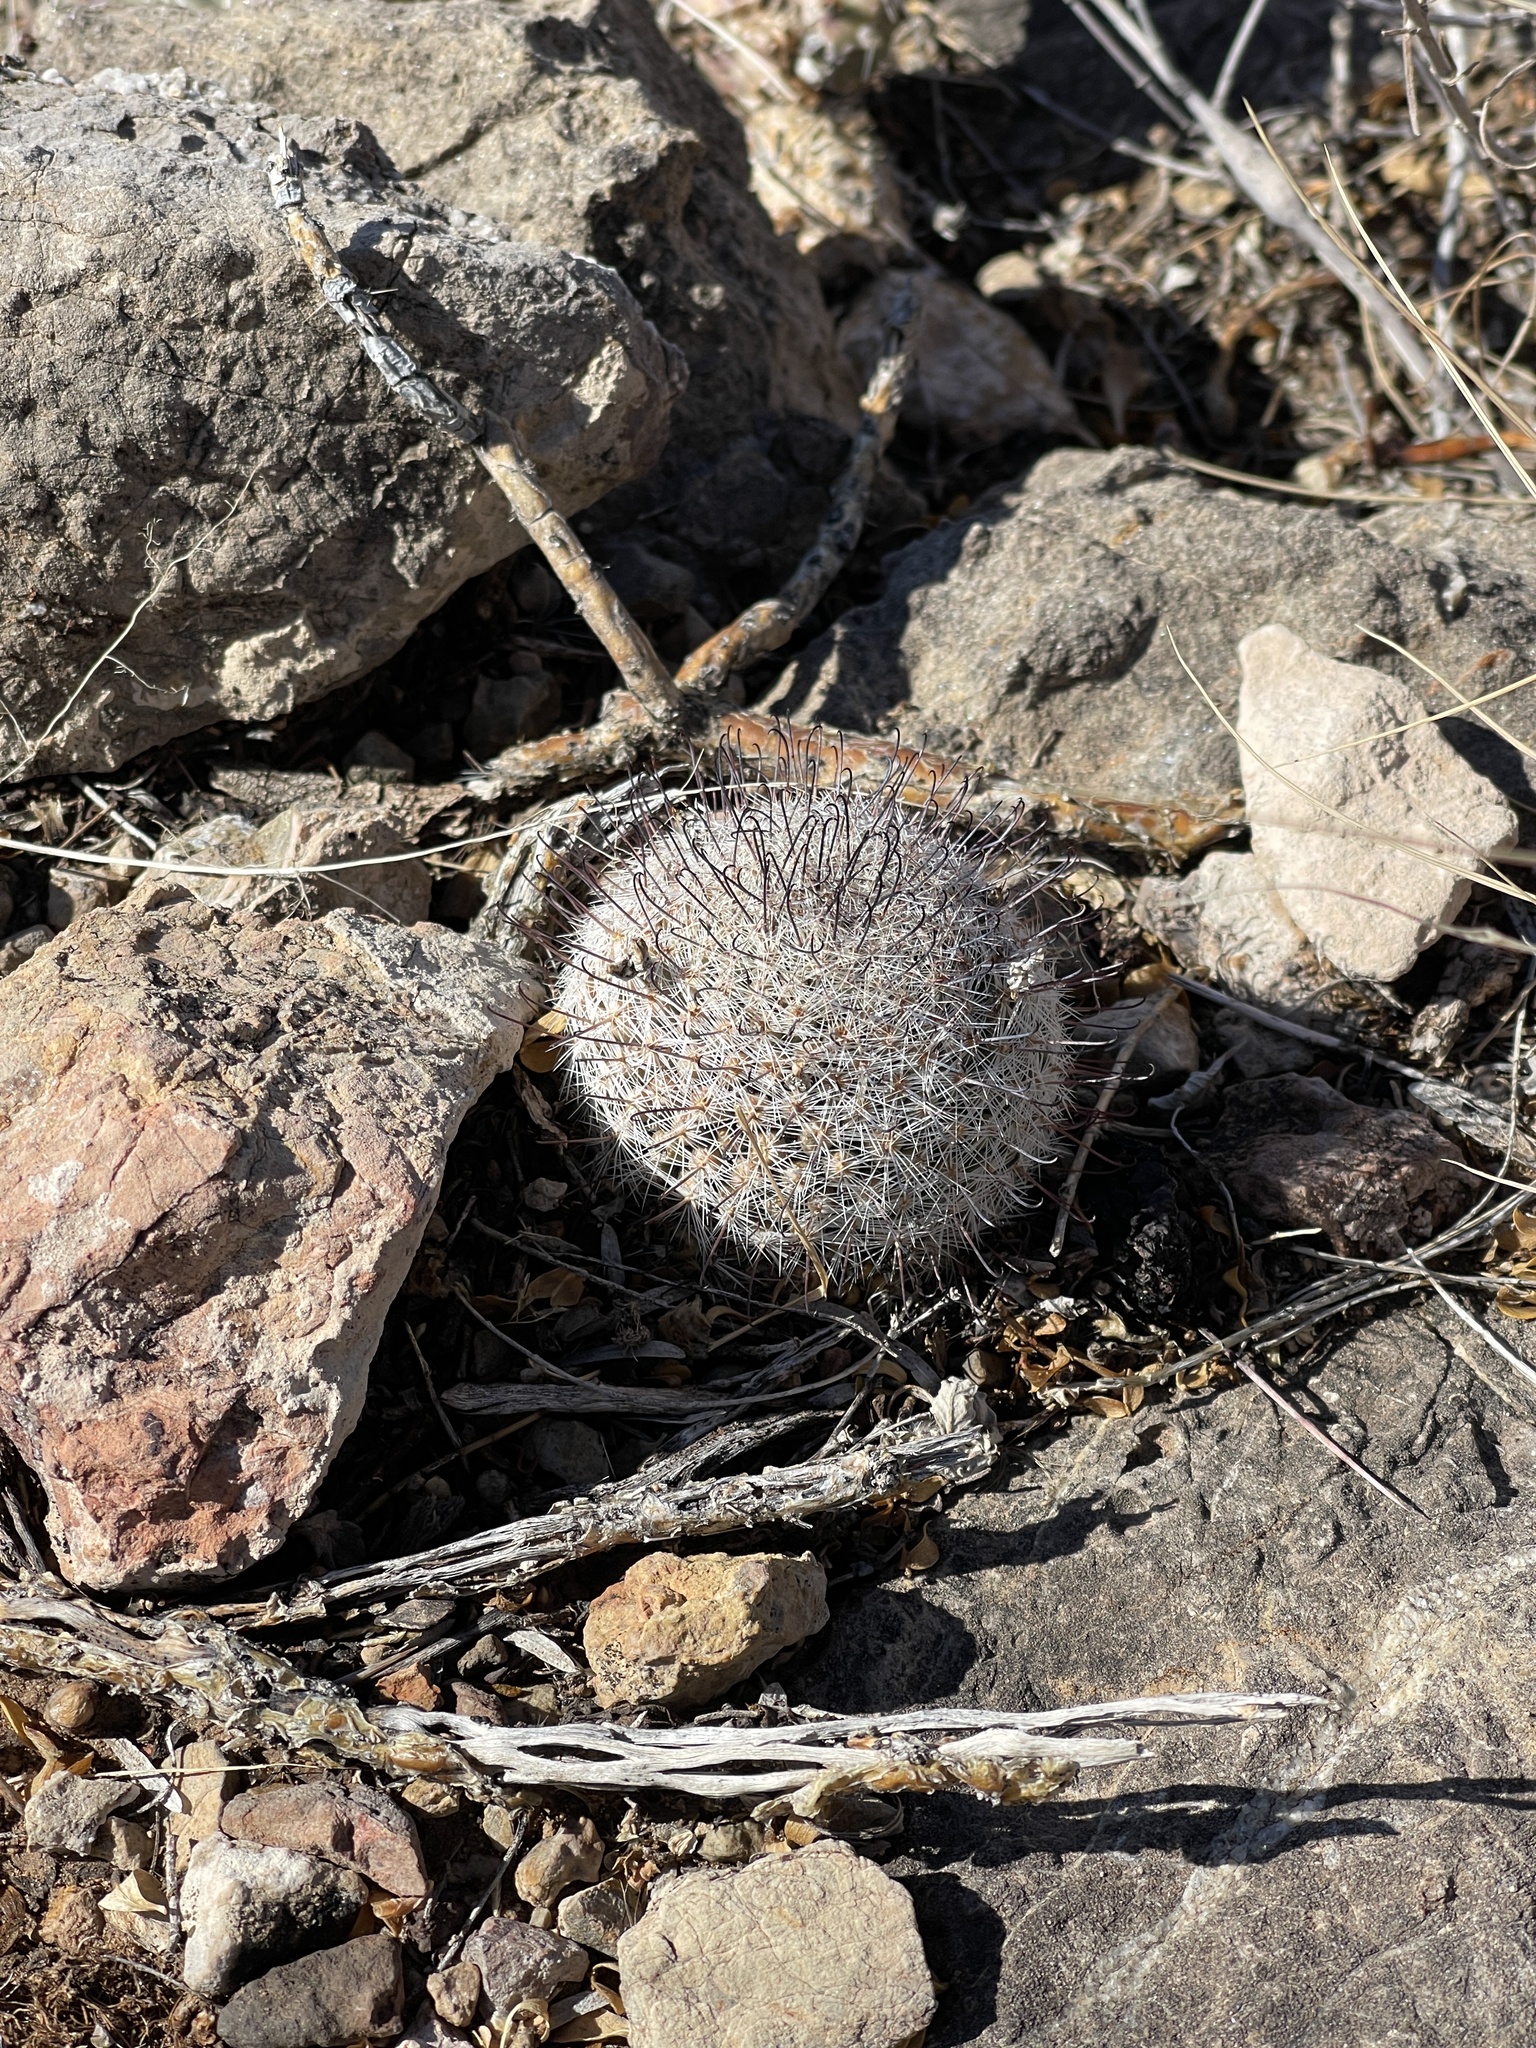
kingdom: Plantae
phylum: Tracheophyta
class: Magnoliopsida
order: Caryophyllales
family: Cactaceae
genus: Cochemiea
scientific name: Cochemiea grahamii
